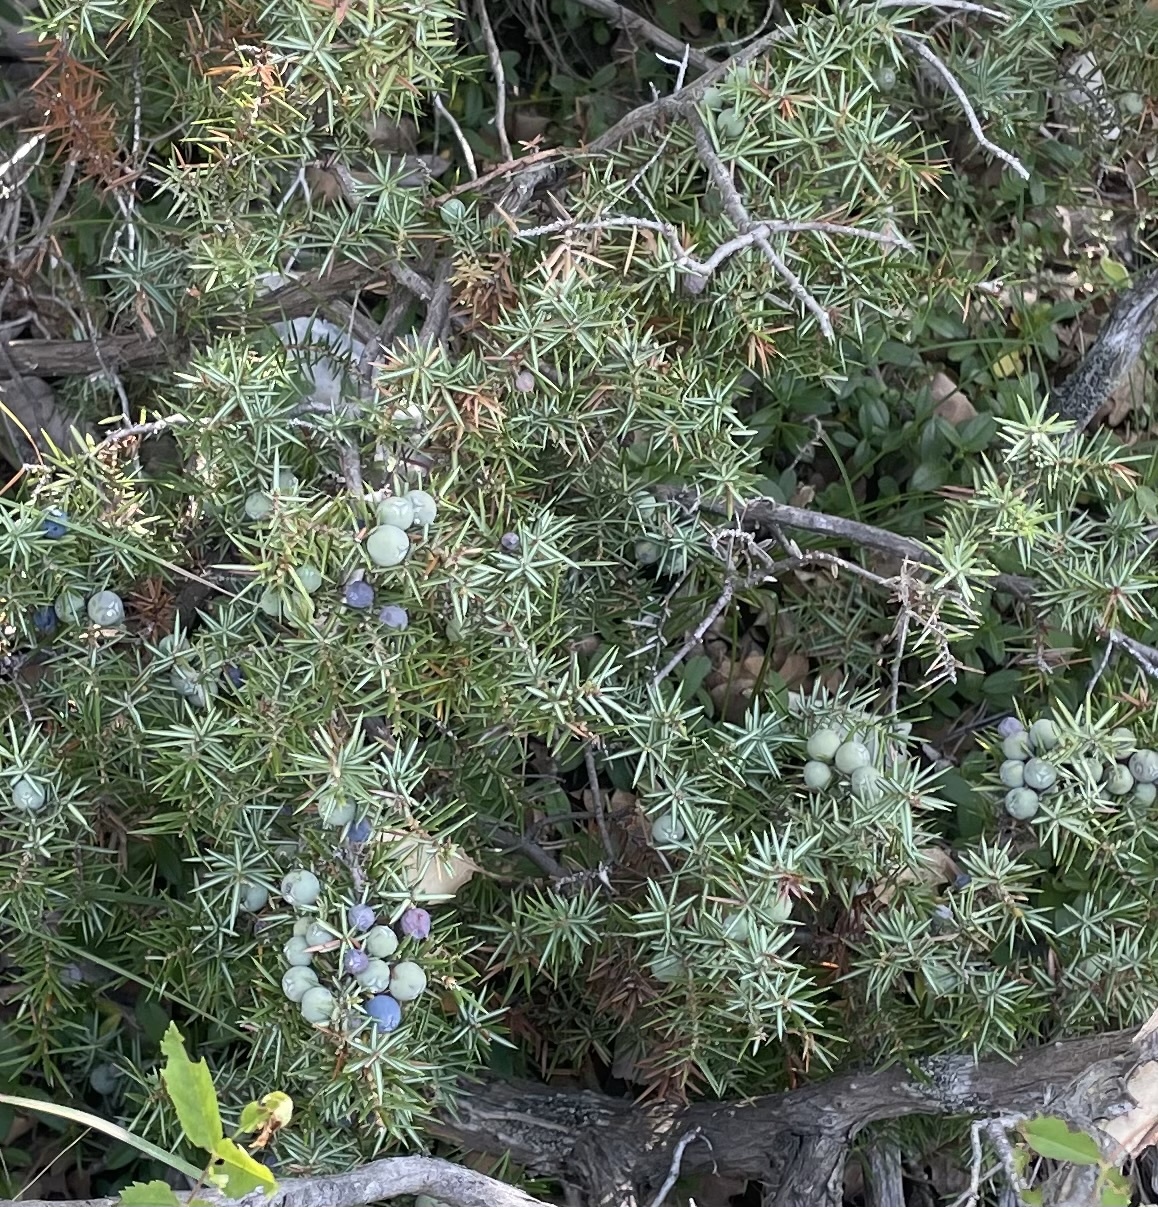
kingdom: Plantae
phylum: Tracheophyta
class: Pinopsida
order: Pinales
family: Cupressaceae
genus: Juniperus
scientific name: Juniperus communis
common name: Common juniper
